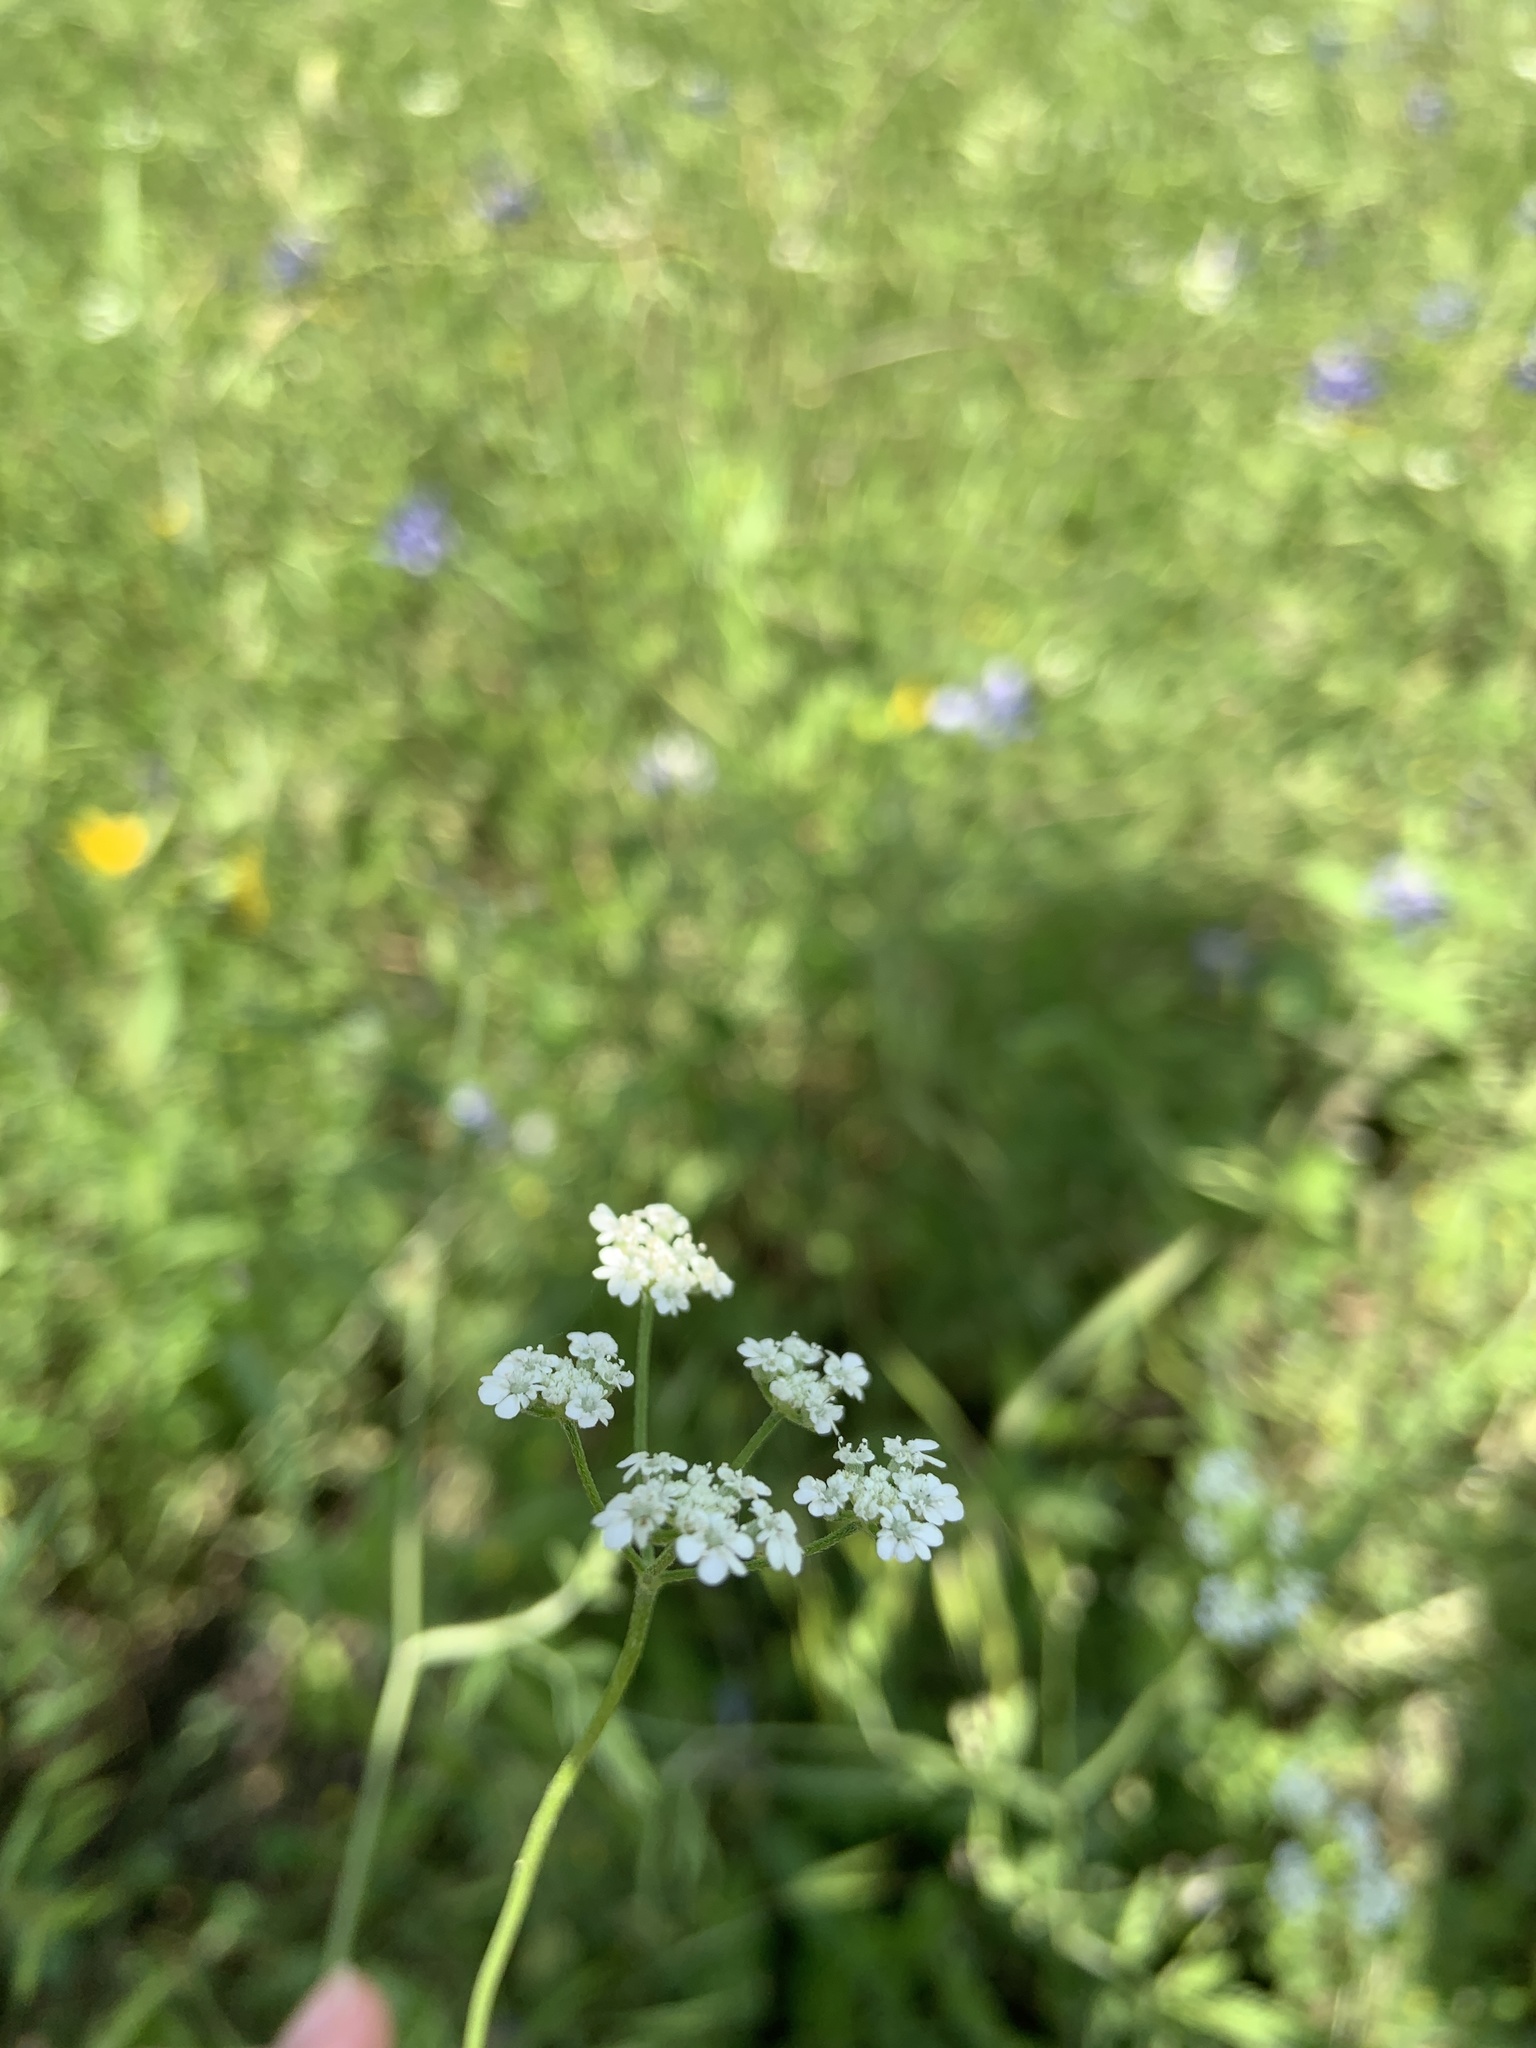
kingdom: Plantae
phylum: Tracheophyta
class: Magnoliopsida
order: Apiales
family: Apiaceae
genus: Torilis
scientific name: Torilis arvensis
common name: Spreading hedge-parsley
